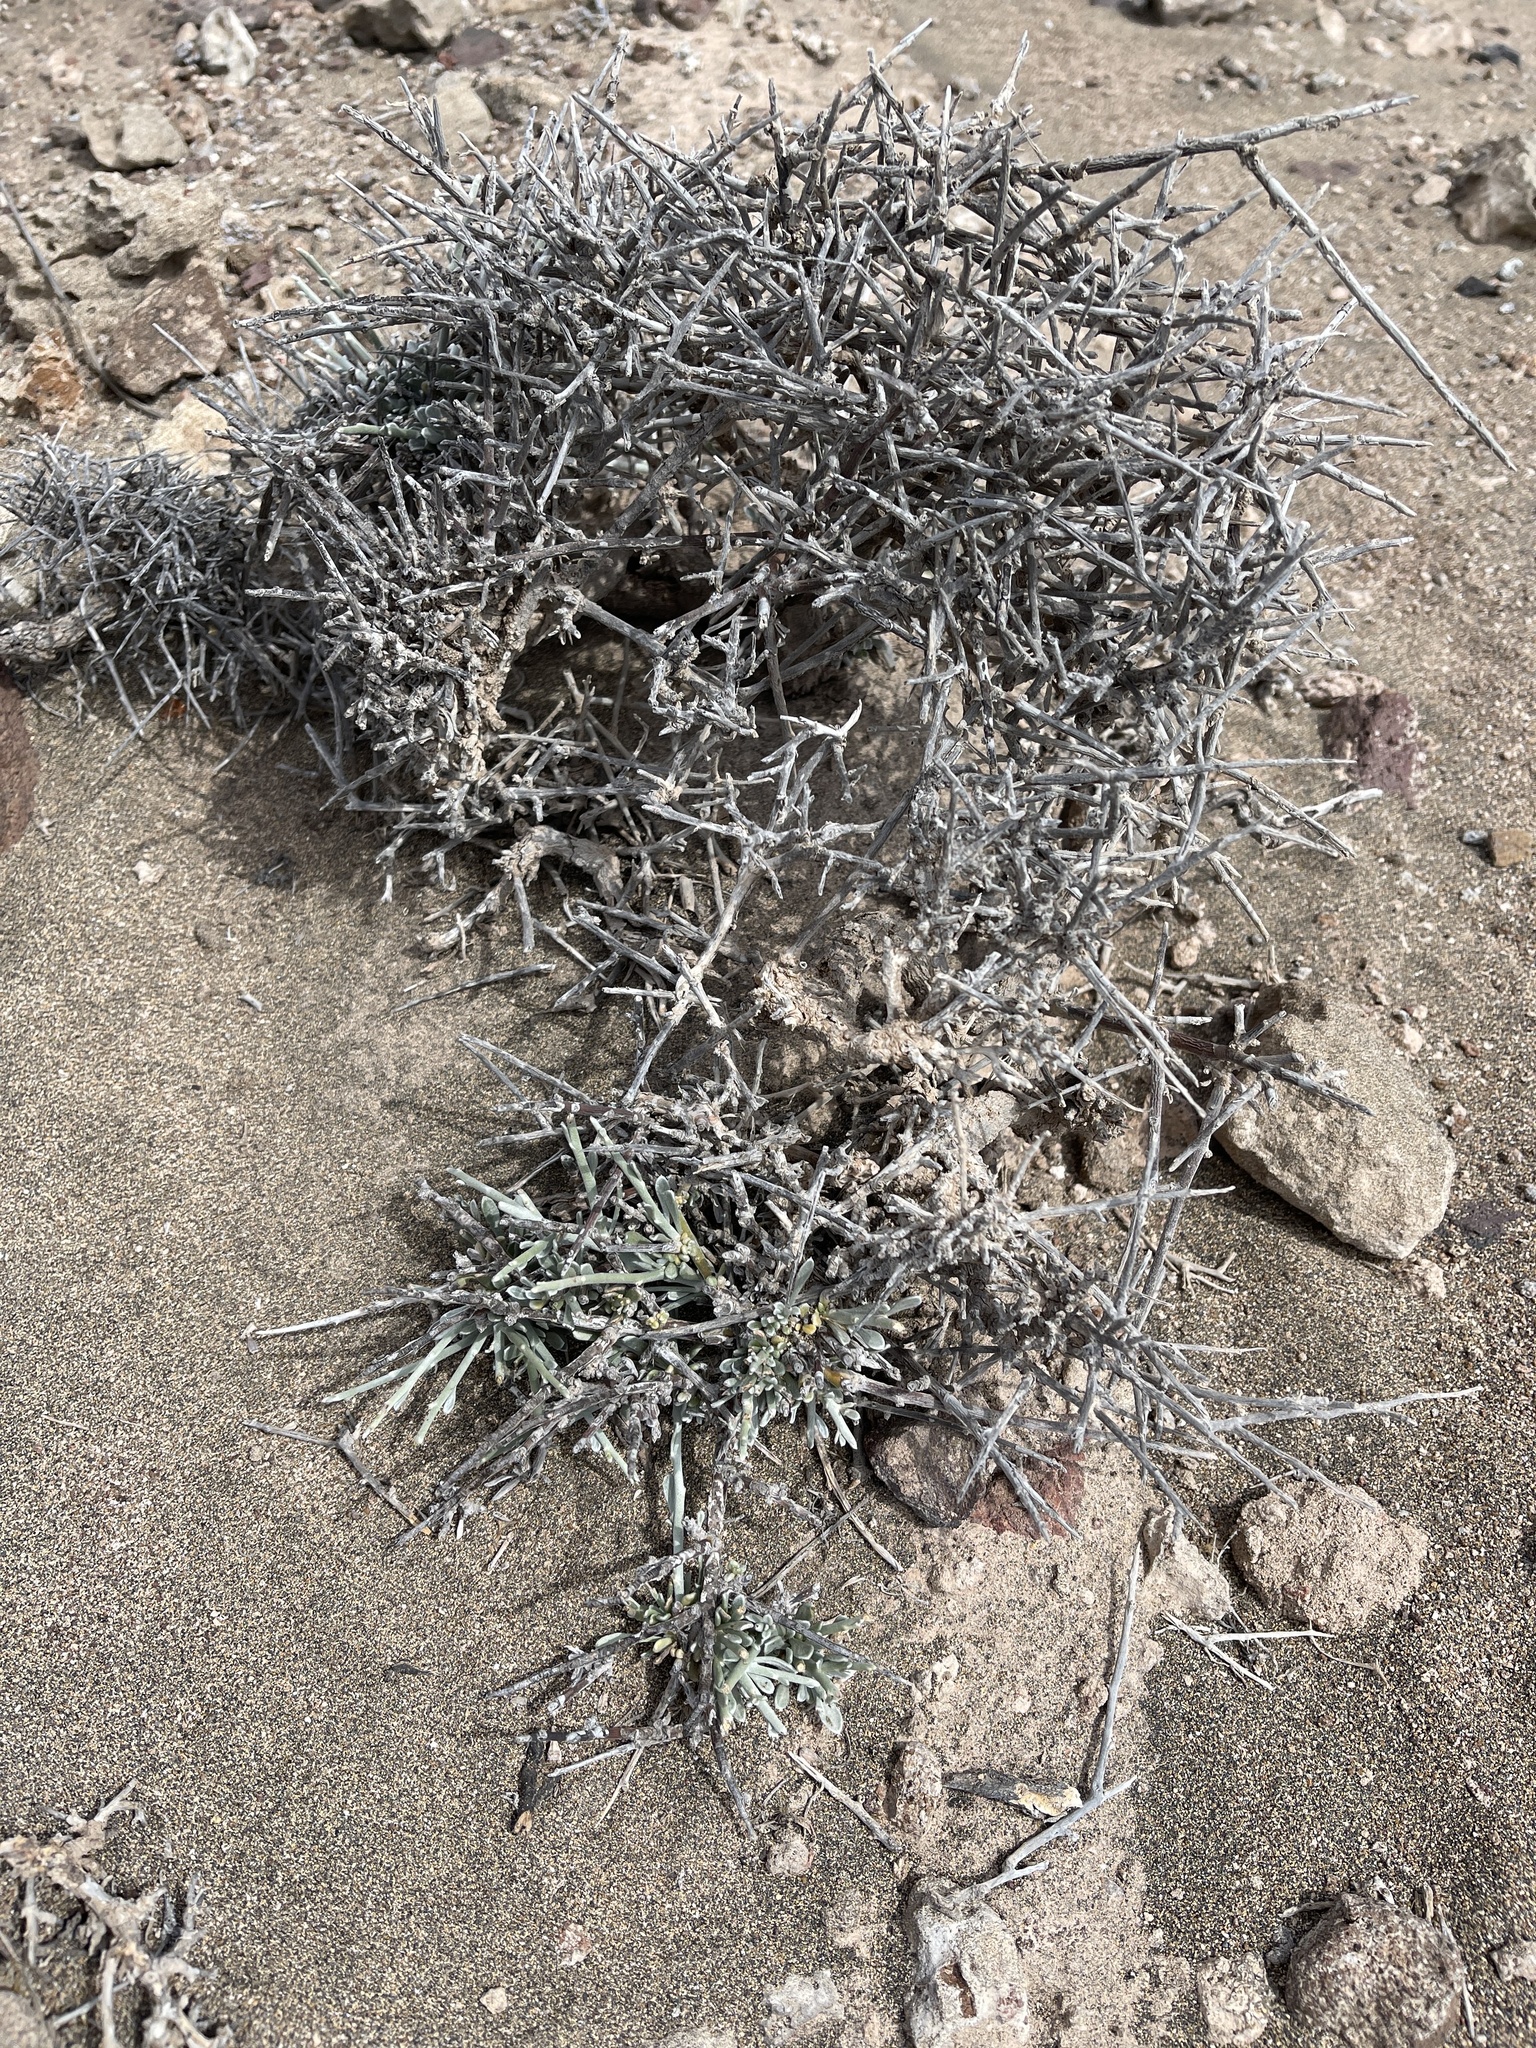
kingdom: Plantae
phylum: Tracheophyta
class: Magnoliopsida
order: Solanales
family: Convolvulaceae
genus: Convolvulus
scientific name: Convolvulus caput-medusae
